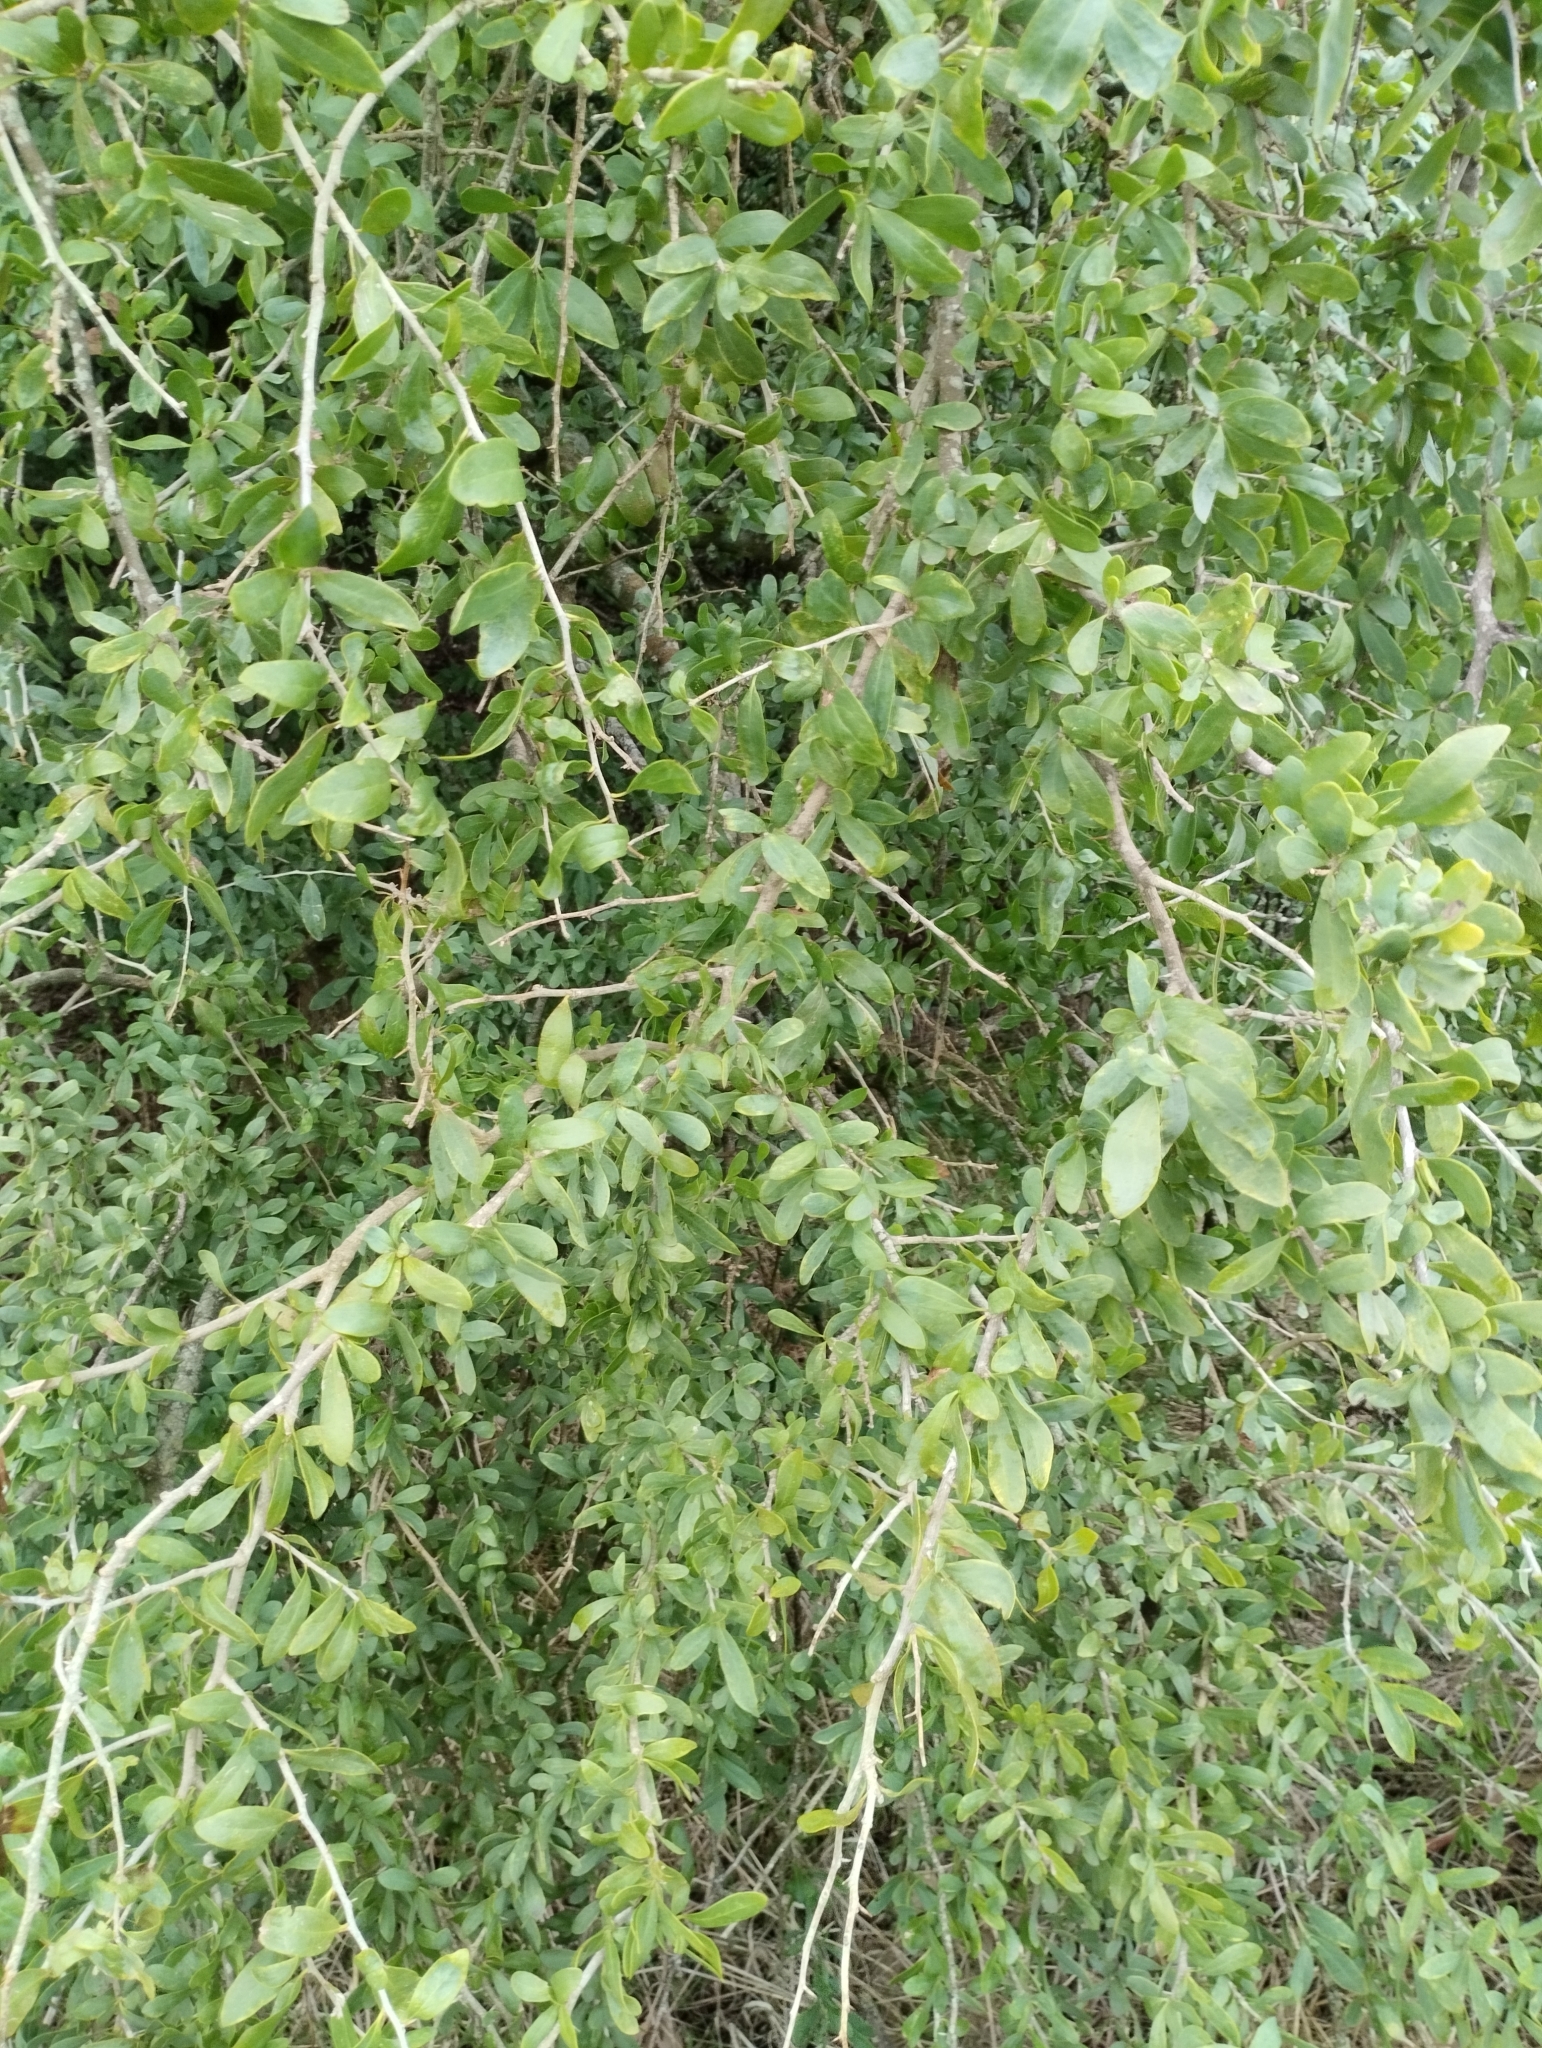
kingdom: Plantae
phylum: Tracheophyta
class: Magnoliopsida
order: Santalales
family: Cervantesiaceae
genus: Acanthosyris
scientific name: Acanthosyris spinescens
